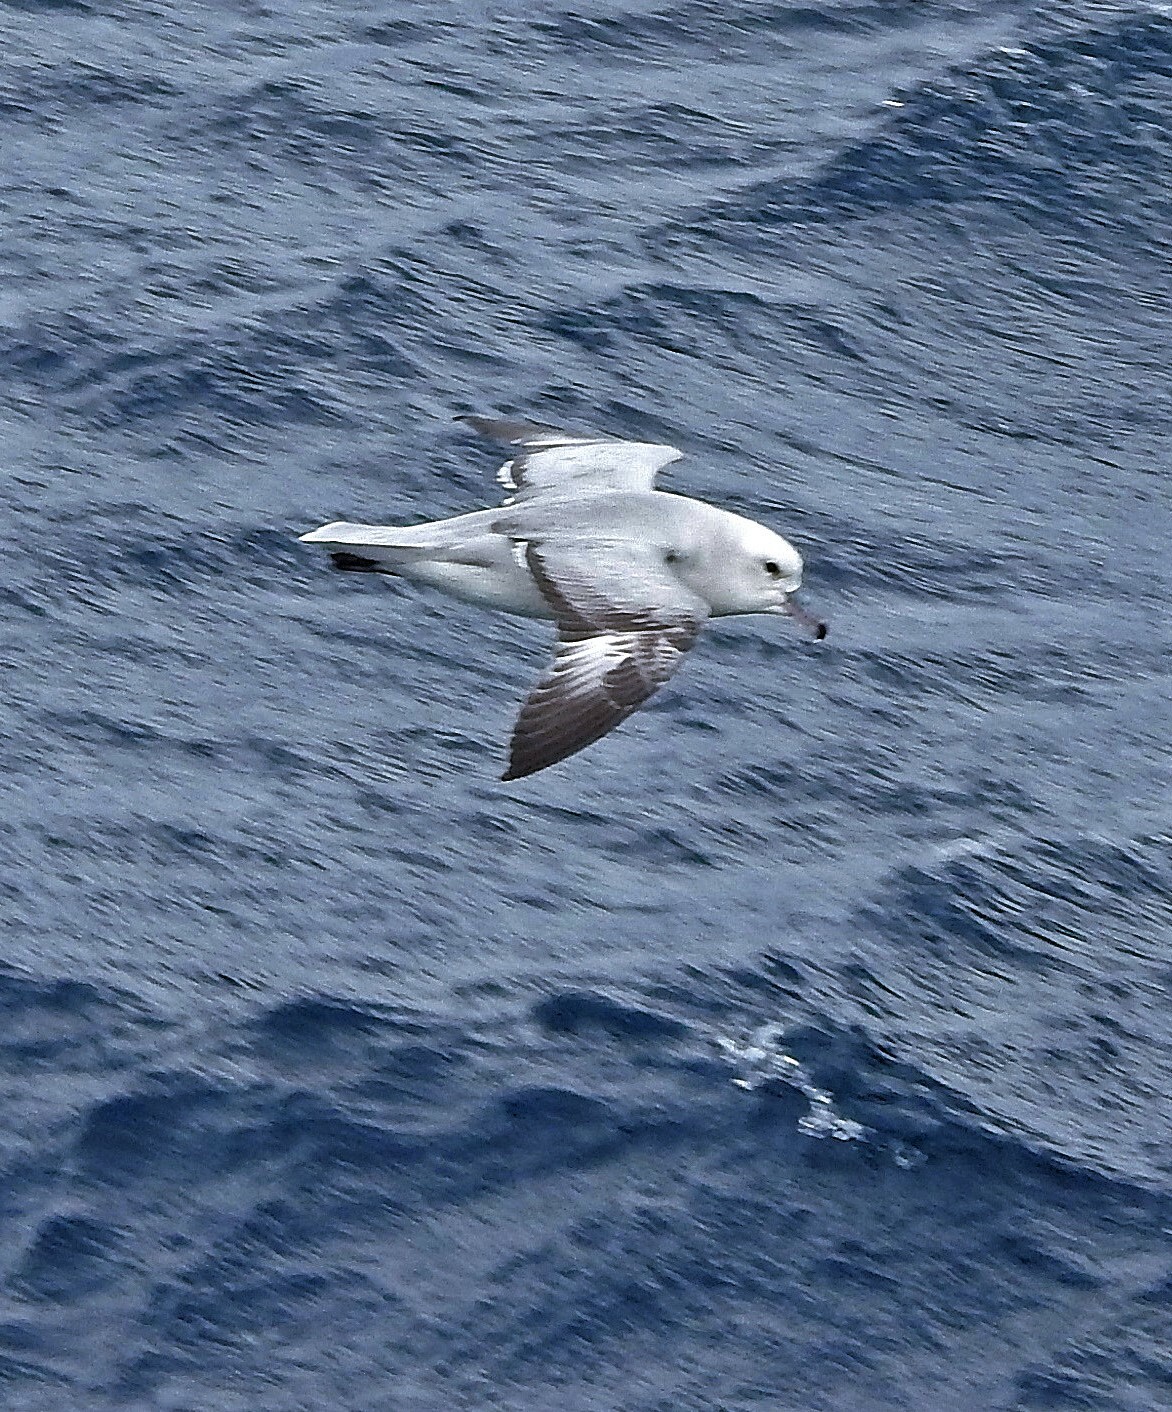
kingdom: Animalia
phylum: Chordata
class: Aves
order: Procellariiformes
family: Procellariidae
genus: Fulmarus
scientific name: Fulmarus glacialoides
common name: Southern fulmar
